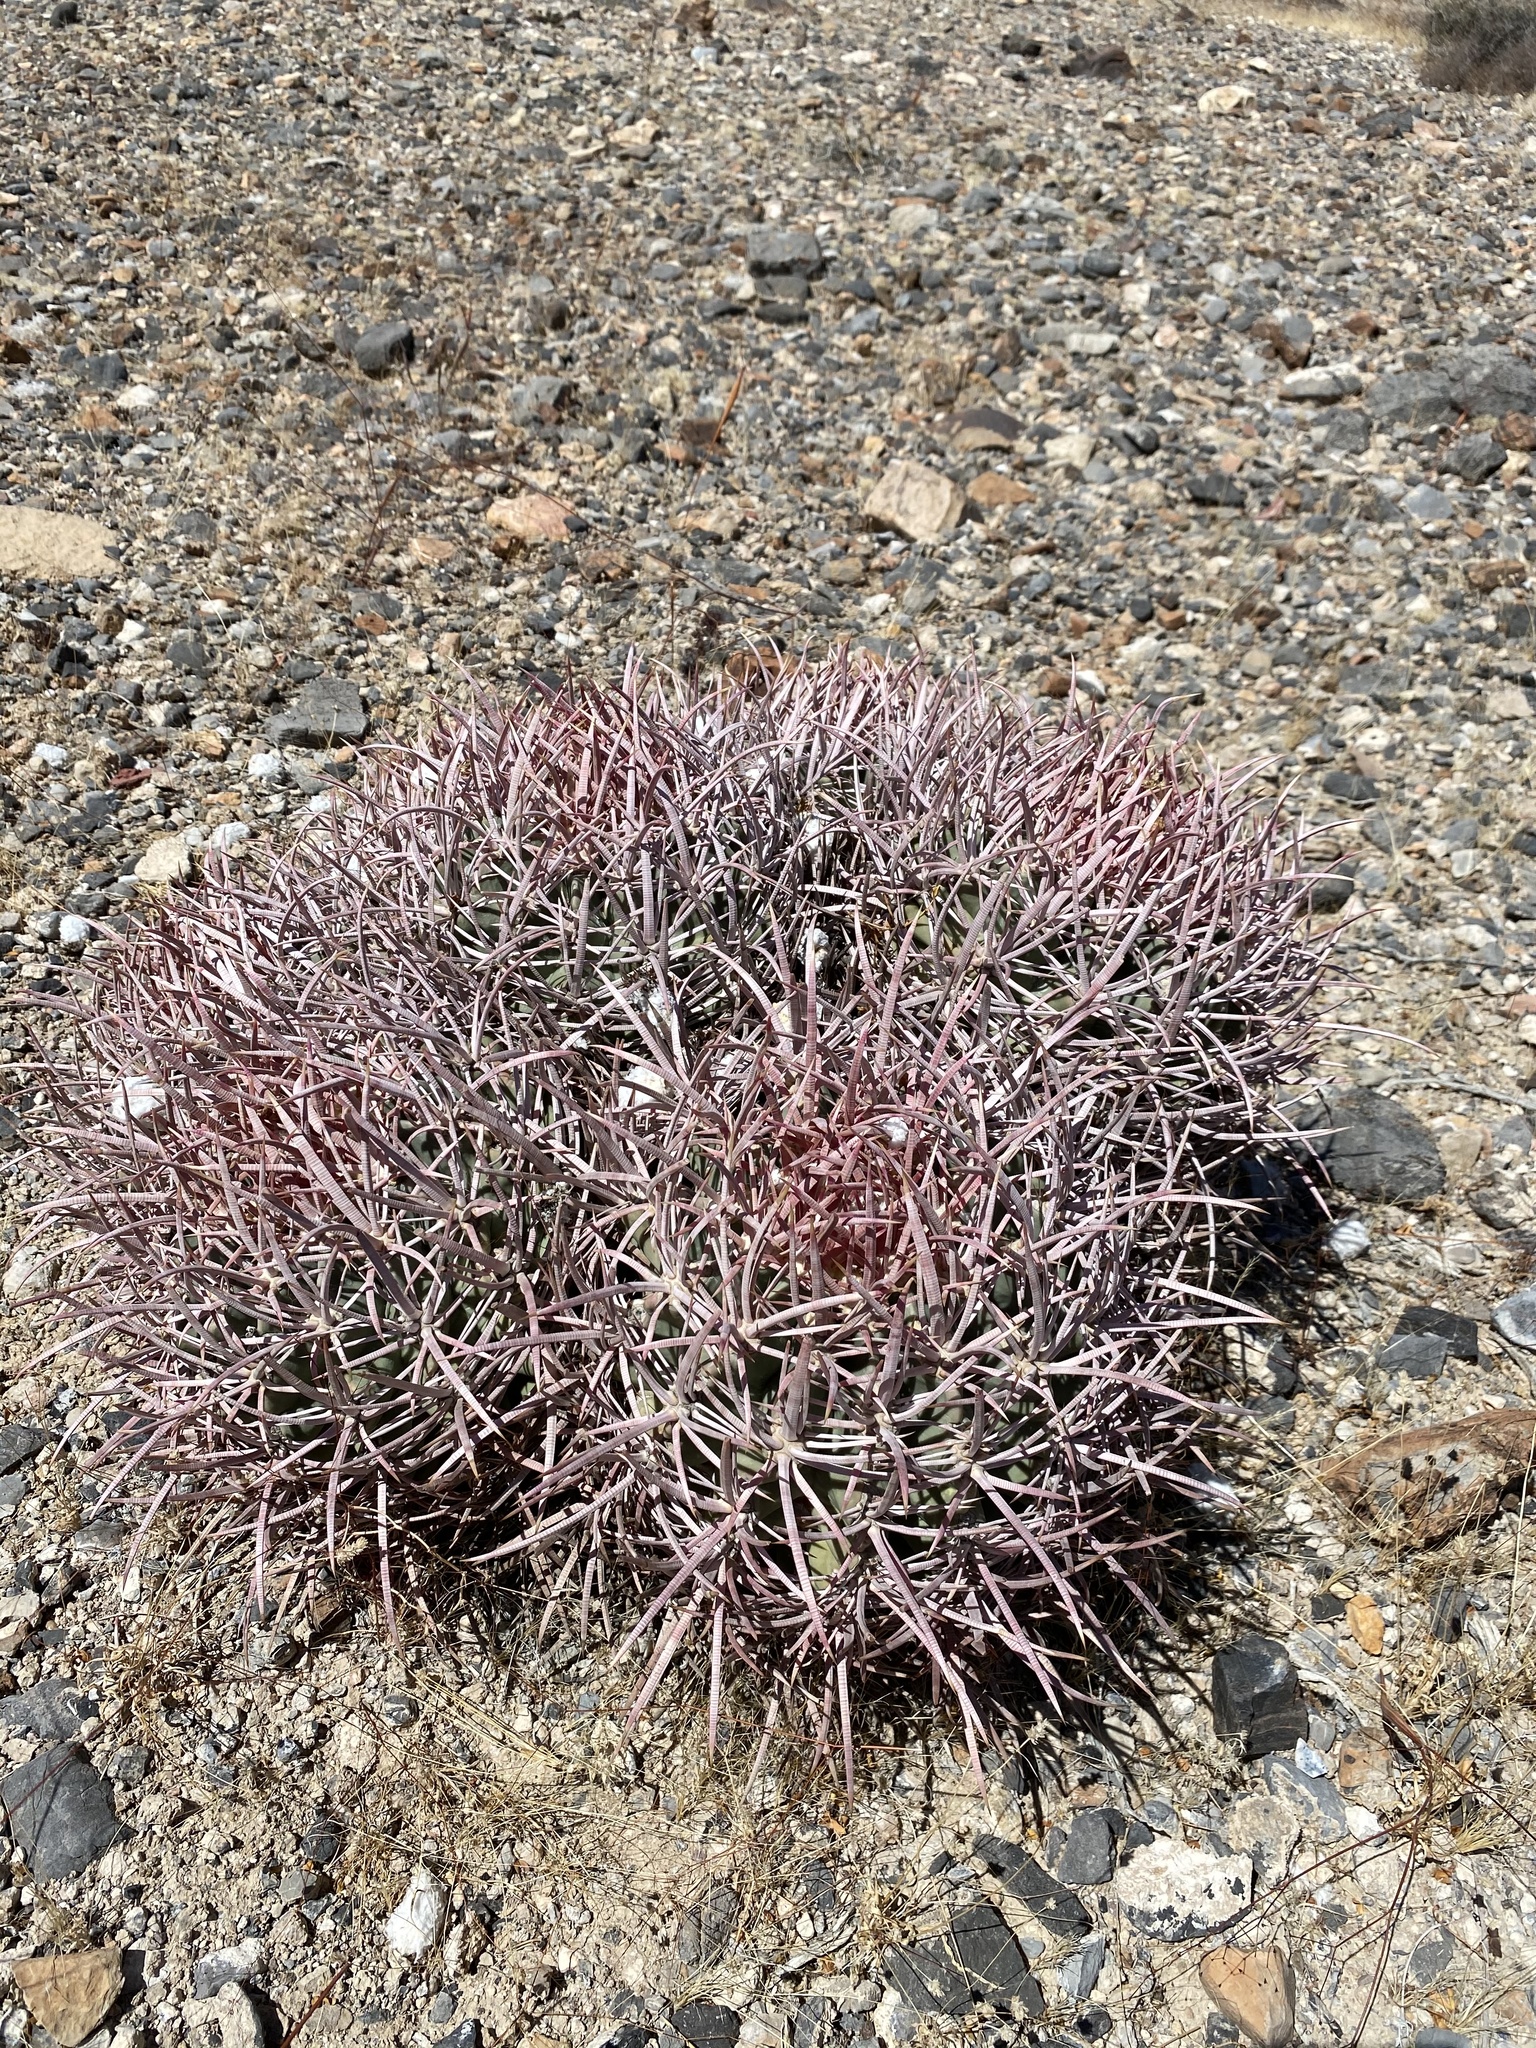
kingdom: Plantae
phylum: Tracheophyta
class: Magnoliopsida
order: Caryophyllales
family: Cactaceae
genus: Echinocactus
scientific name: Echinocactus polycephalus
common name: Cottontop cactus
